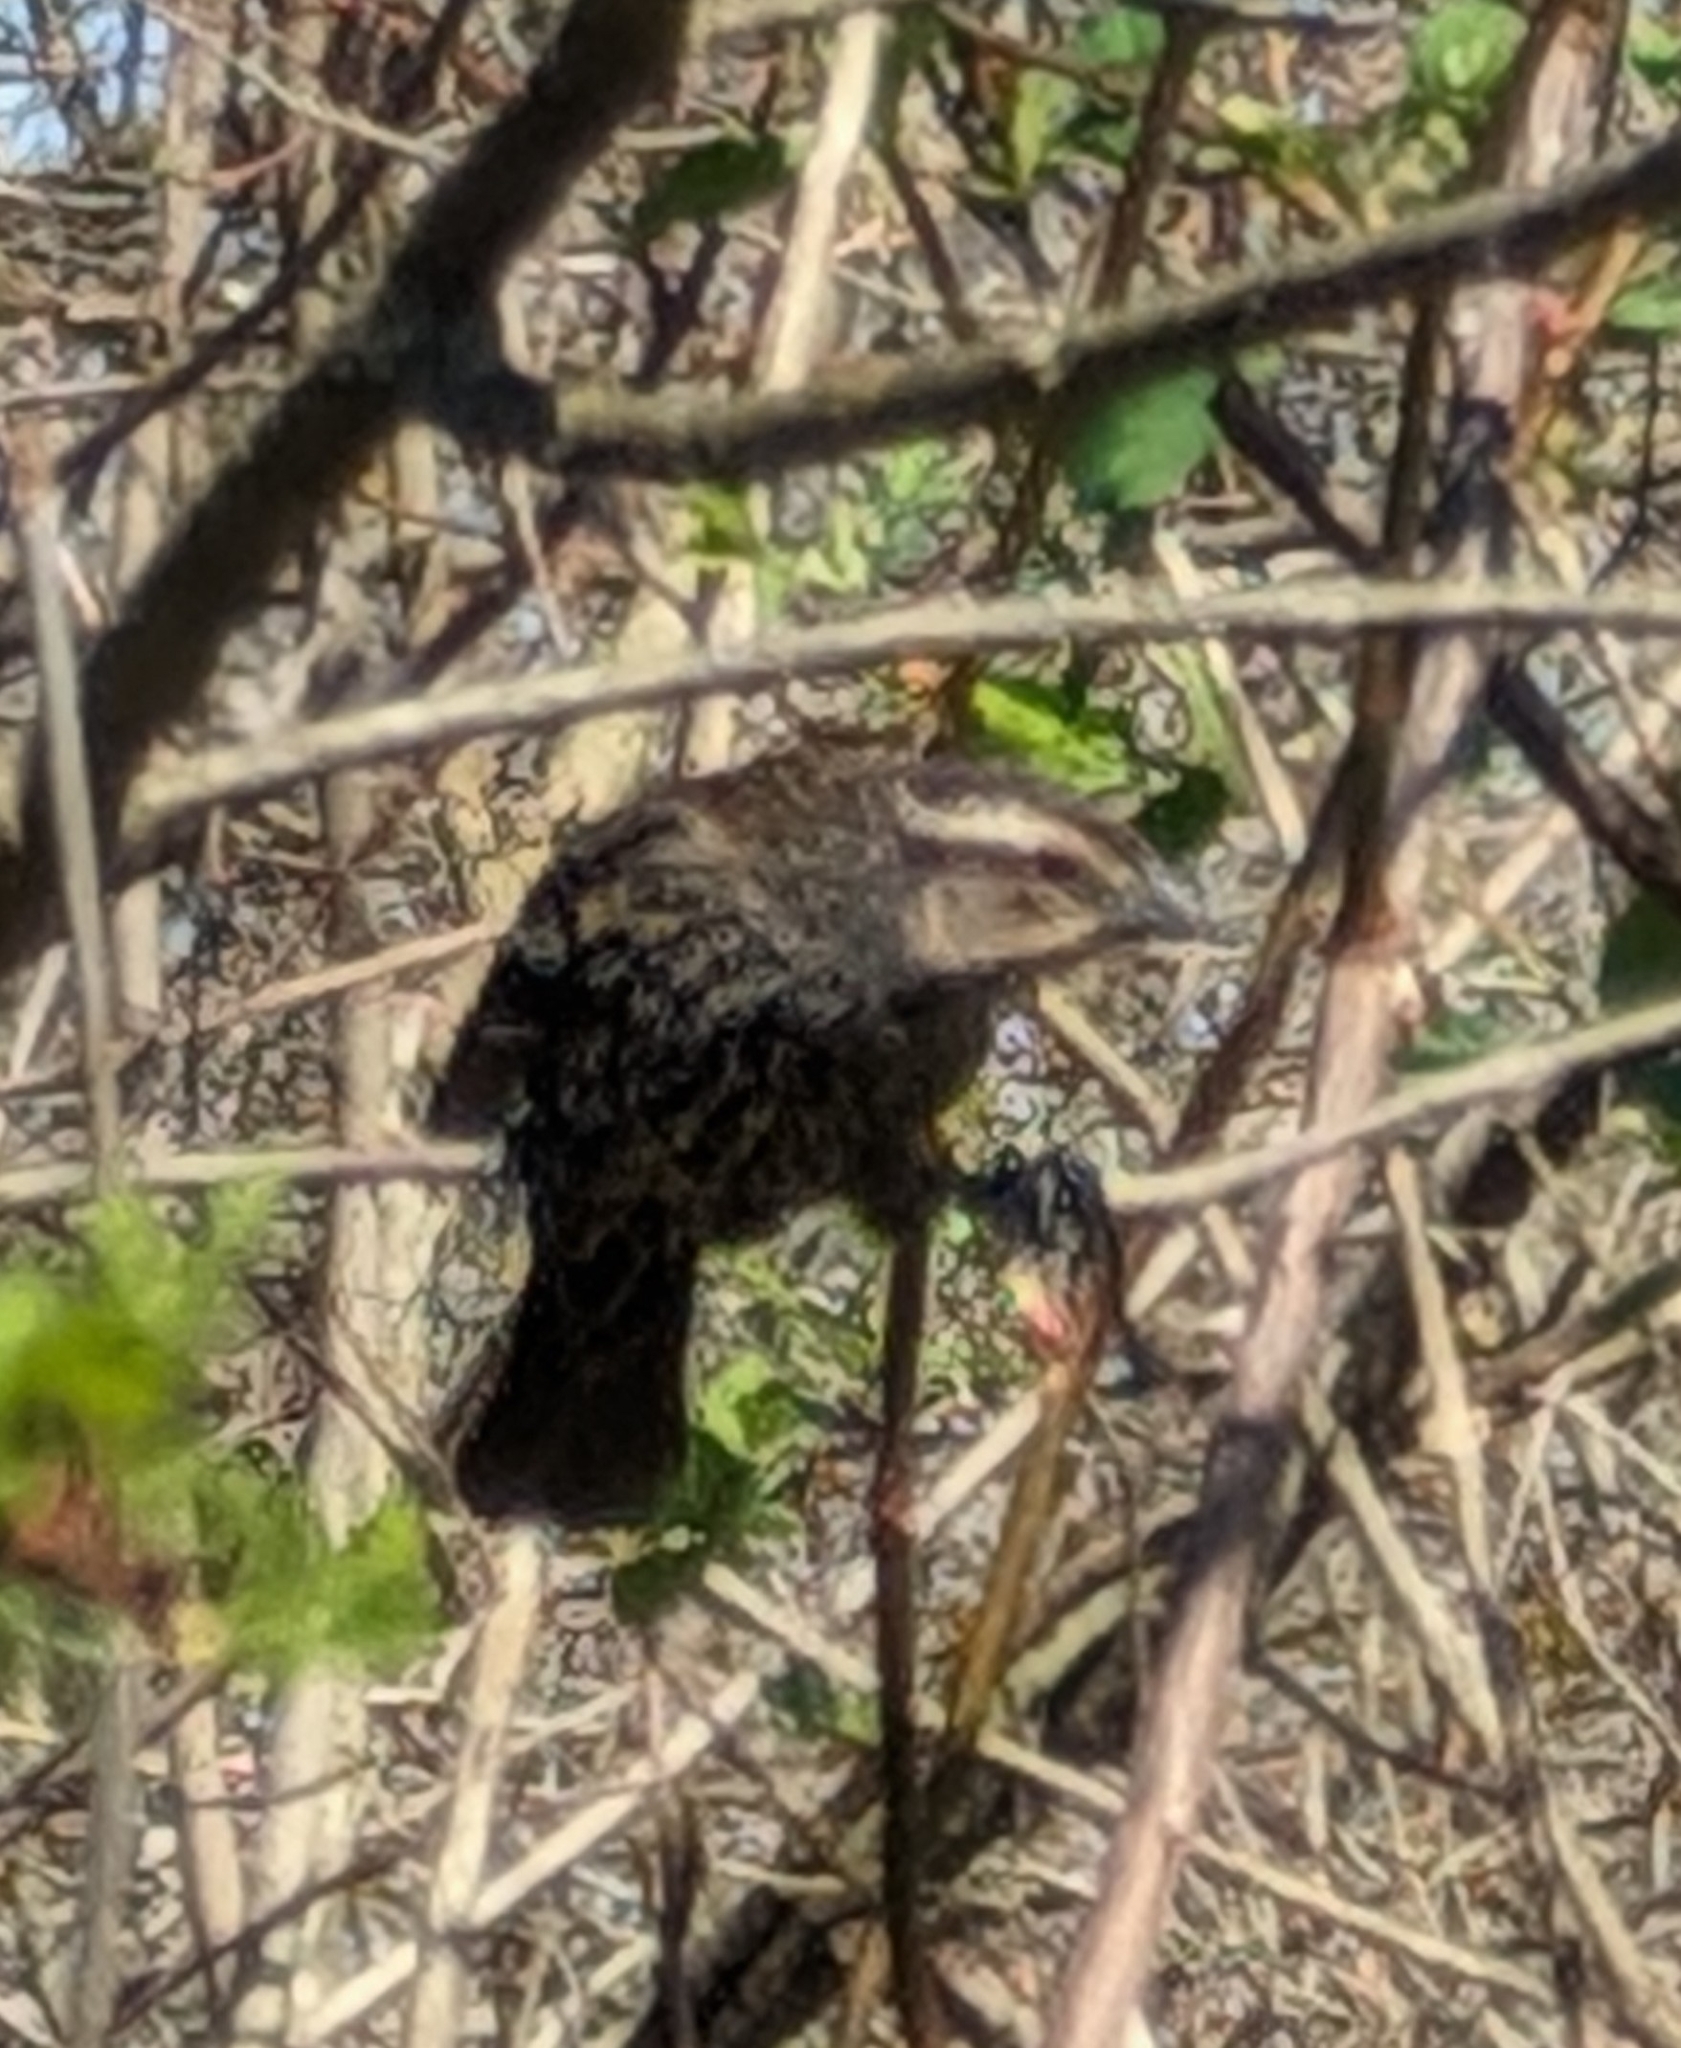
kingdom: Animalia
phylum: Chordata
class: Aves
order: Passeriformes
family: Icteridae
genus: Agelaius
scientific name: Agelaius phoeniceus
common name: Red-winged blackbird
